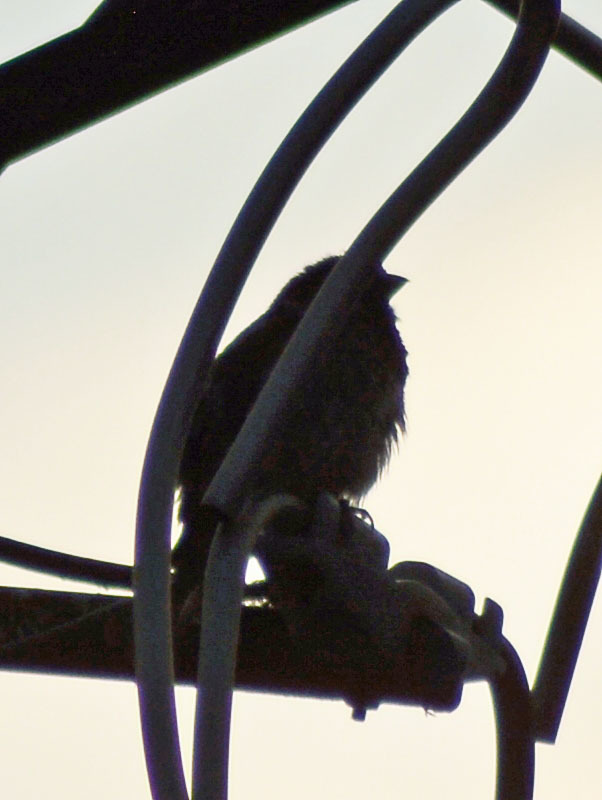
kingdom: Animalia
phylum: Chordata
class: Aves
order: Passeriformes
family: Fringillidae
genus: Haemorhous
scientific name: Haemorhous mexicanus
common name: House finch
